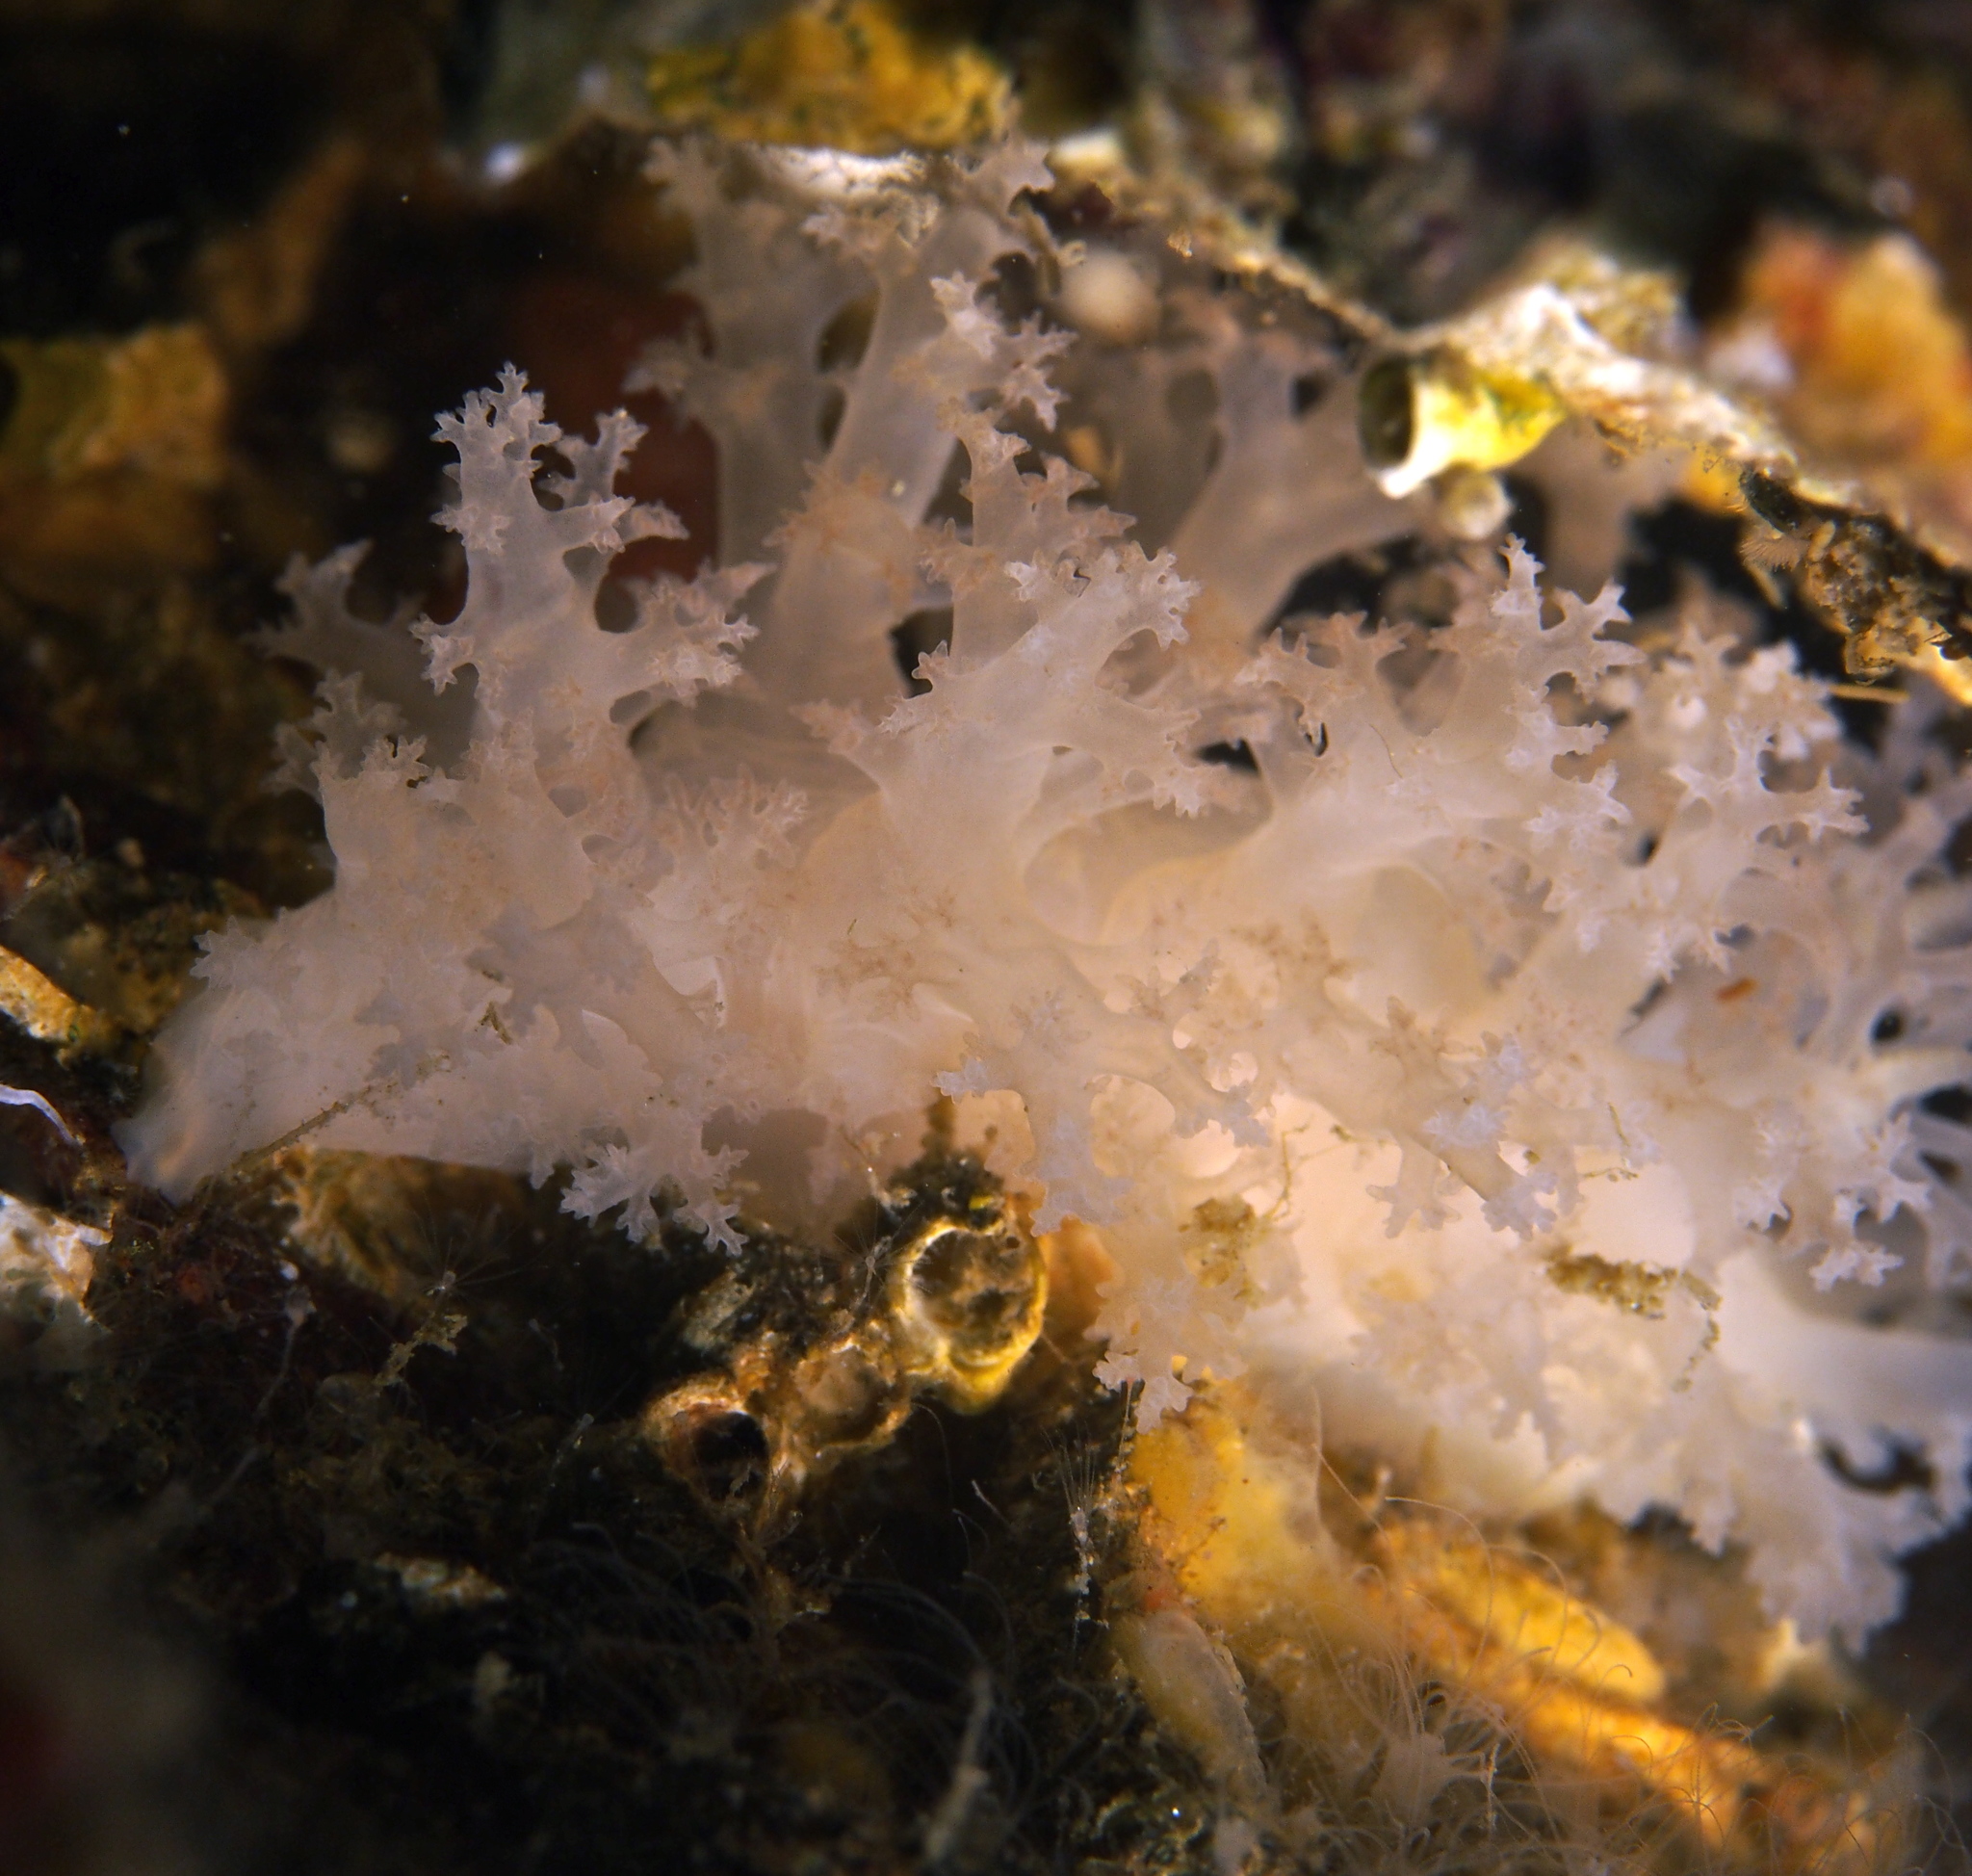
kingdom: Animalia
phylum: Mollusca
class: Gastropoda
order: Nudibranchia
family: Dendronotidae
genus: Dendronotus
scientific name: Dendronotus lacteus
